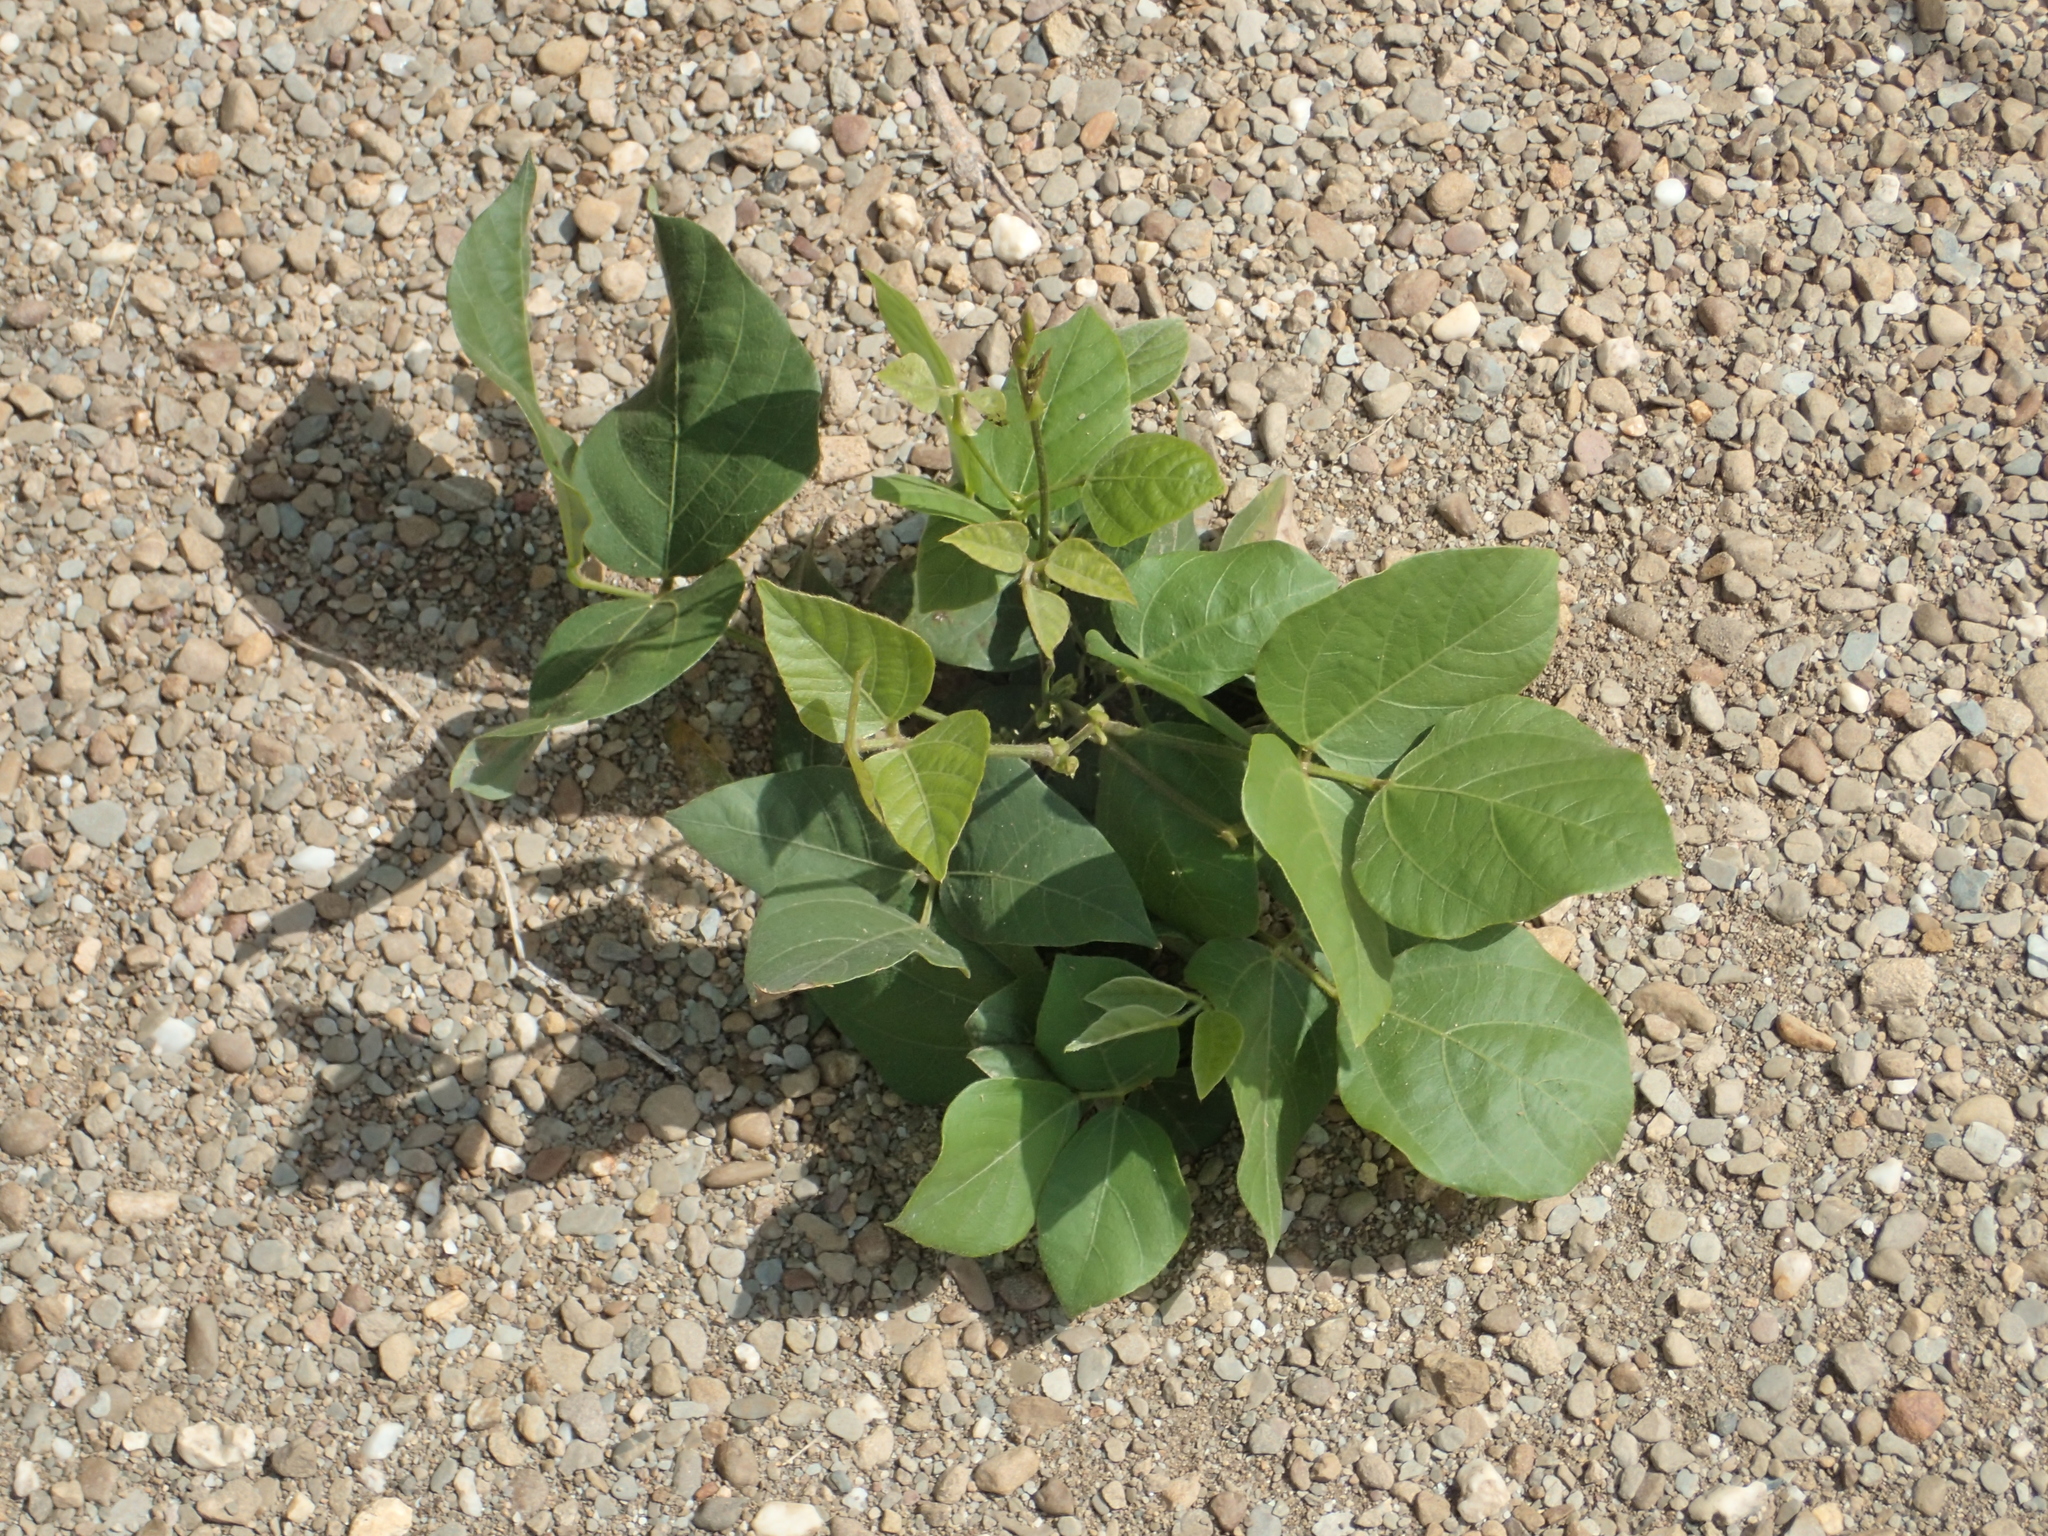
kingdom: Plantae
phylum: Tracheophyta
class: Magnoliopsida
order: Fabales
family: Fabaceae
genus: Pueraria
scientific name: Pueraria montana
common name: Kudzu
